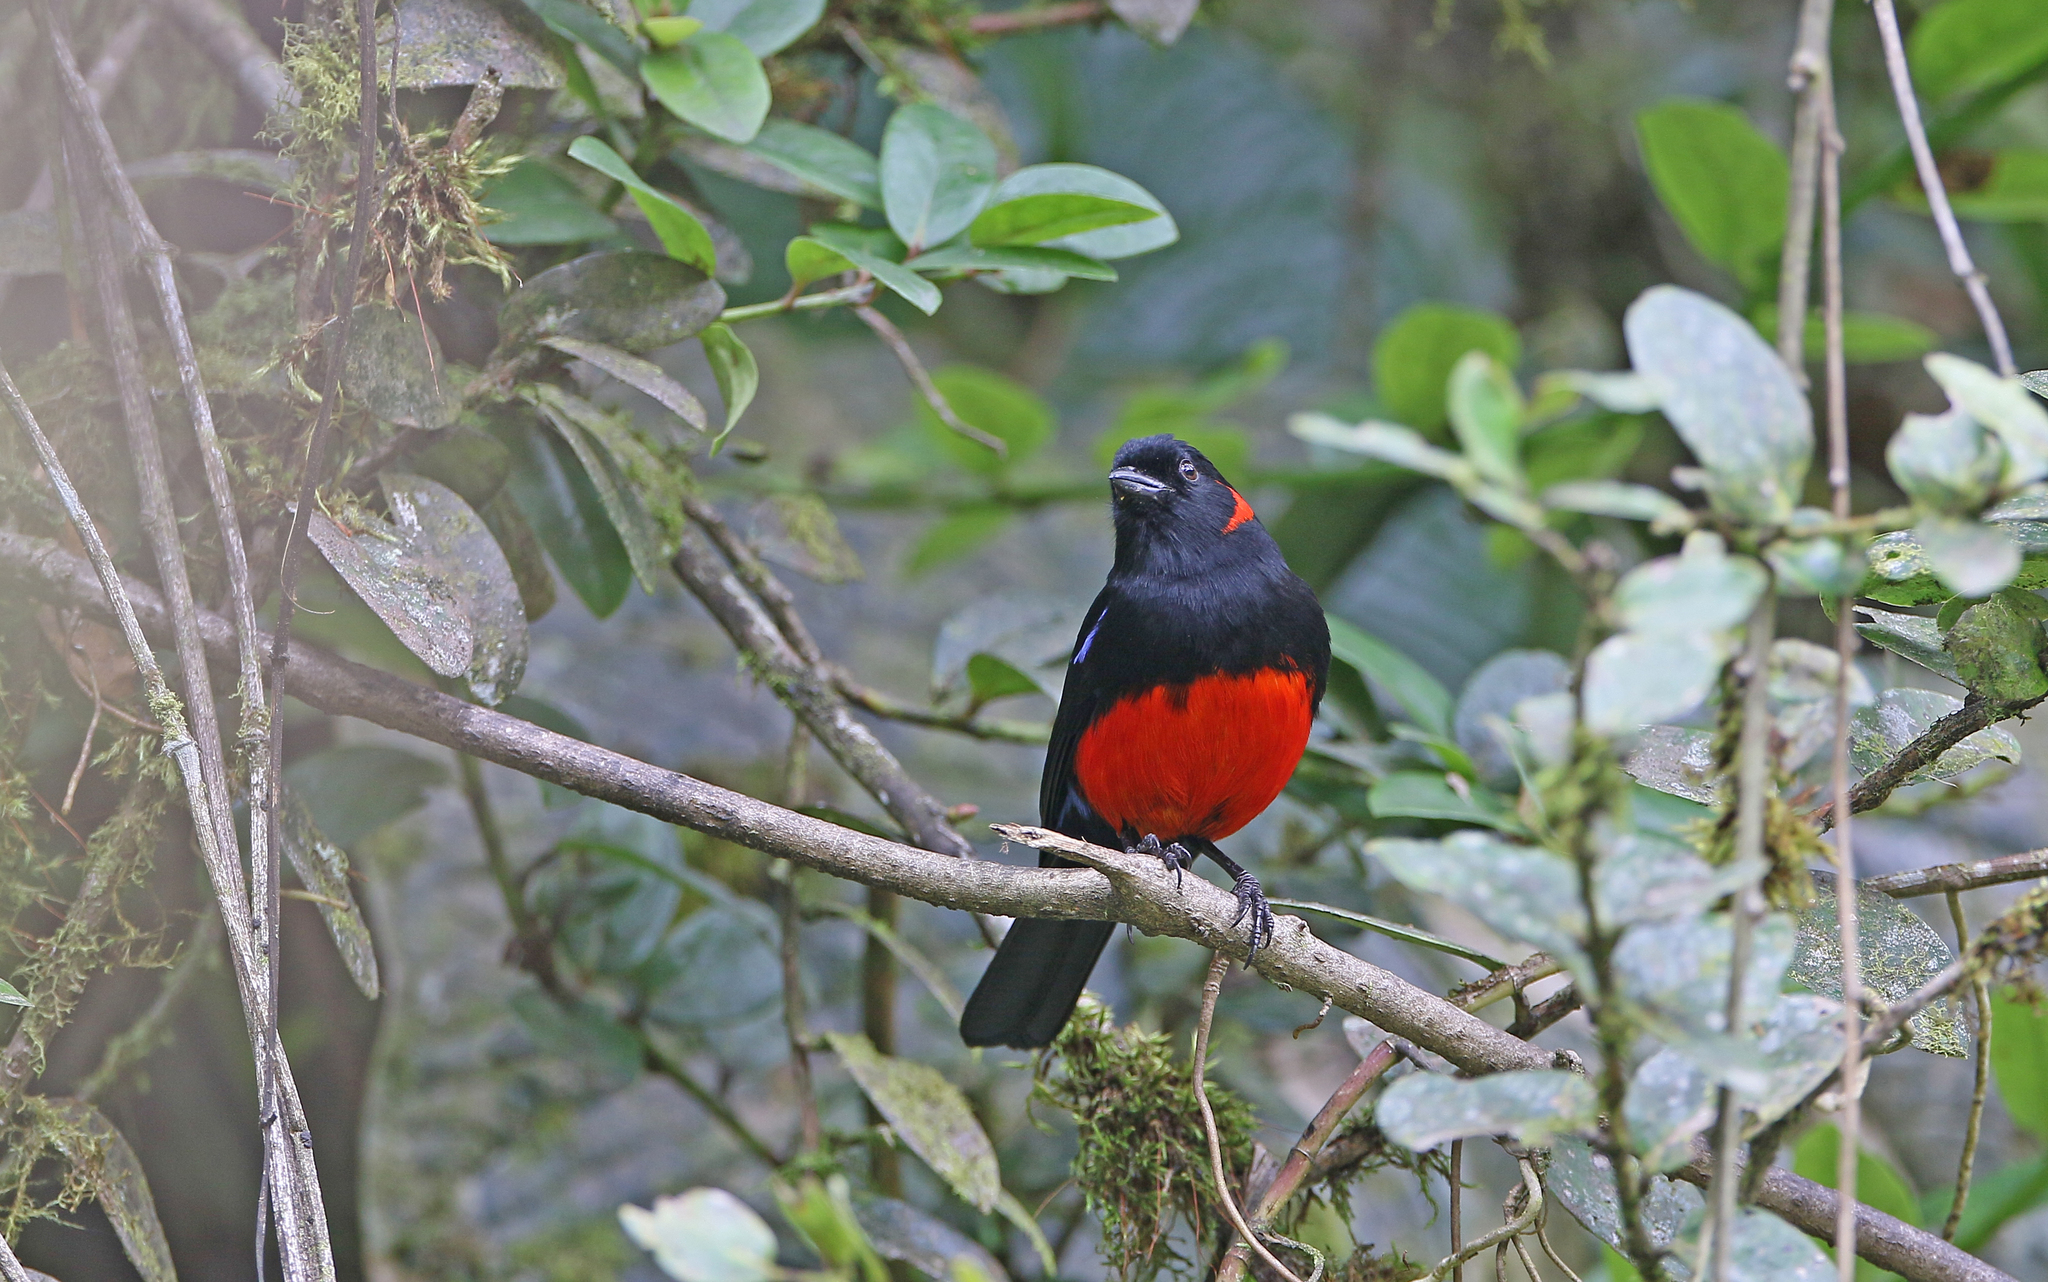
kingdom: Animalia
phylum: Chordata
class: Aves
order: Passeriformes
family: Thraupidae
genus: Anisognathus
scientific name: Anisognathus igniventris
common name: Scarlet-bellied mountain tanager
